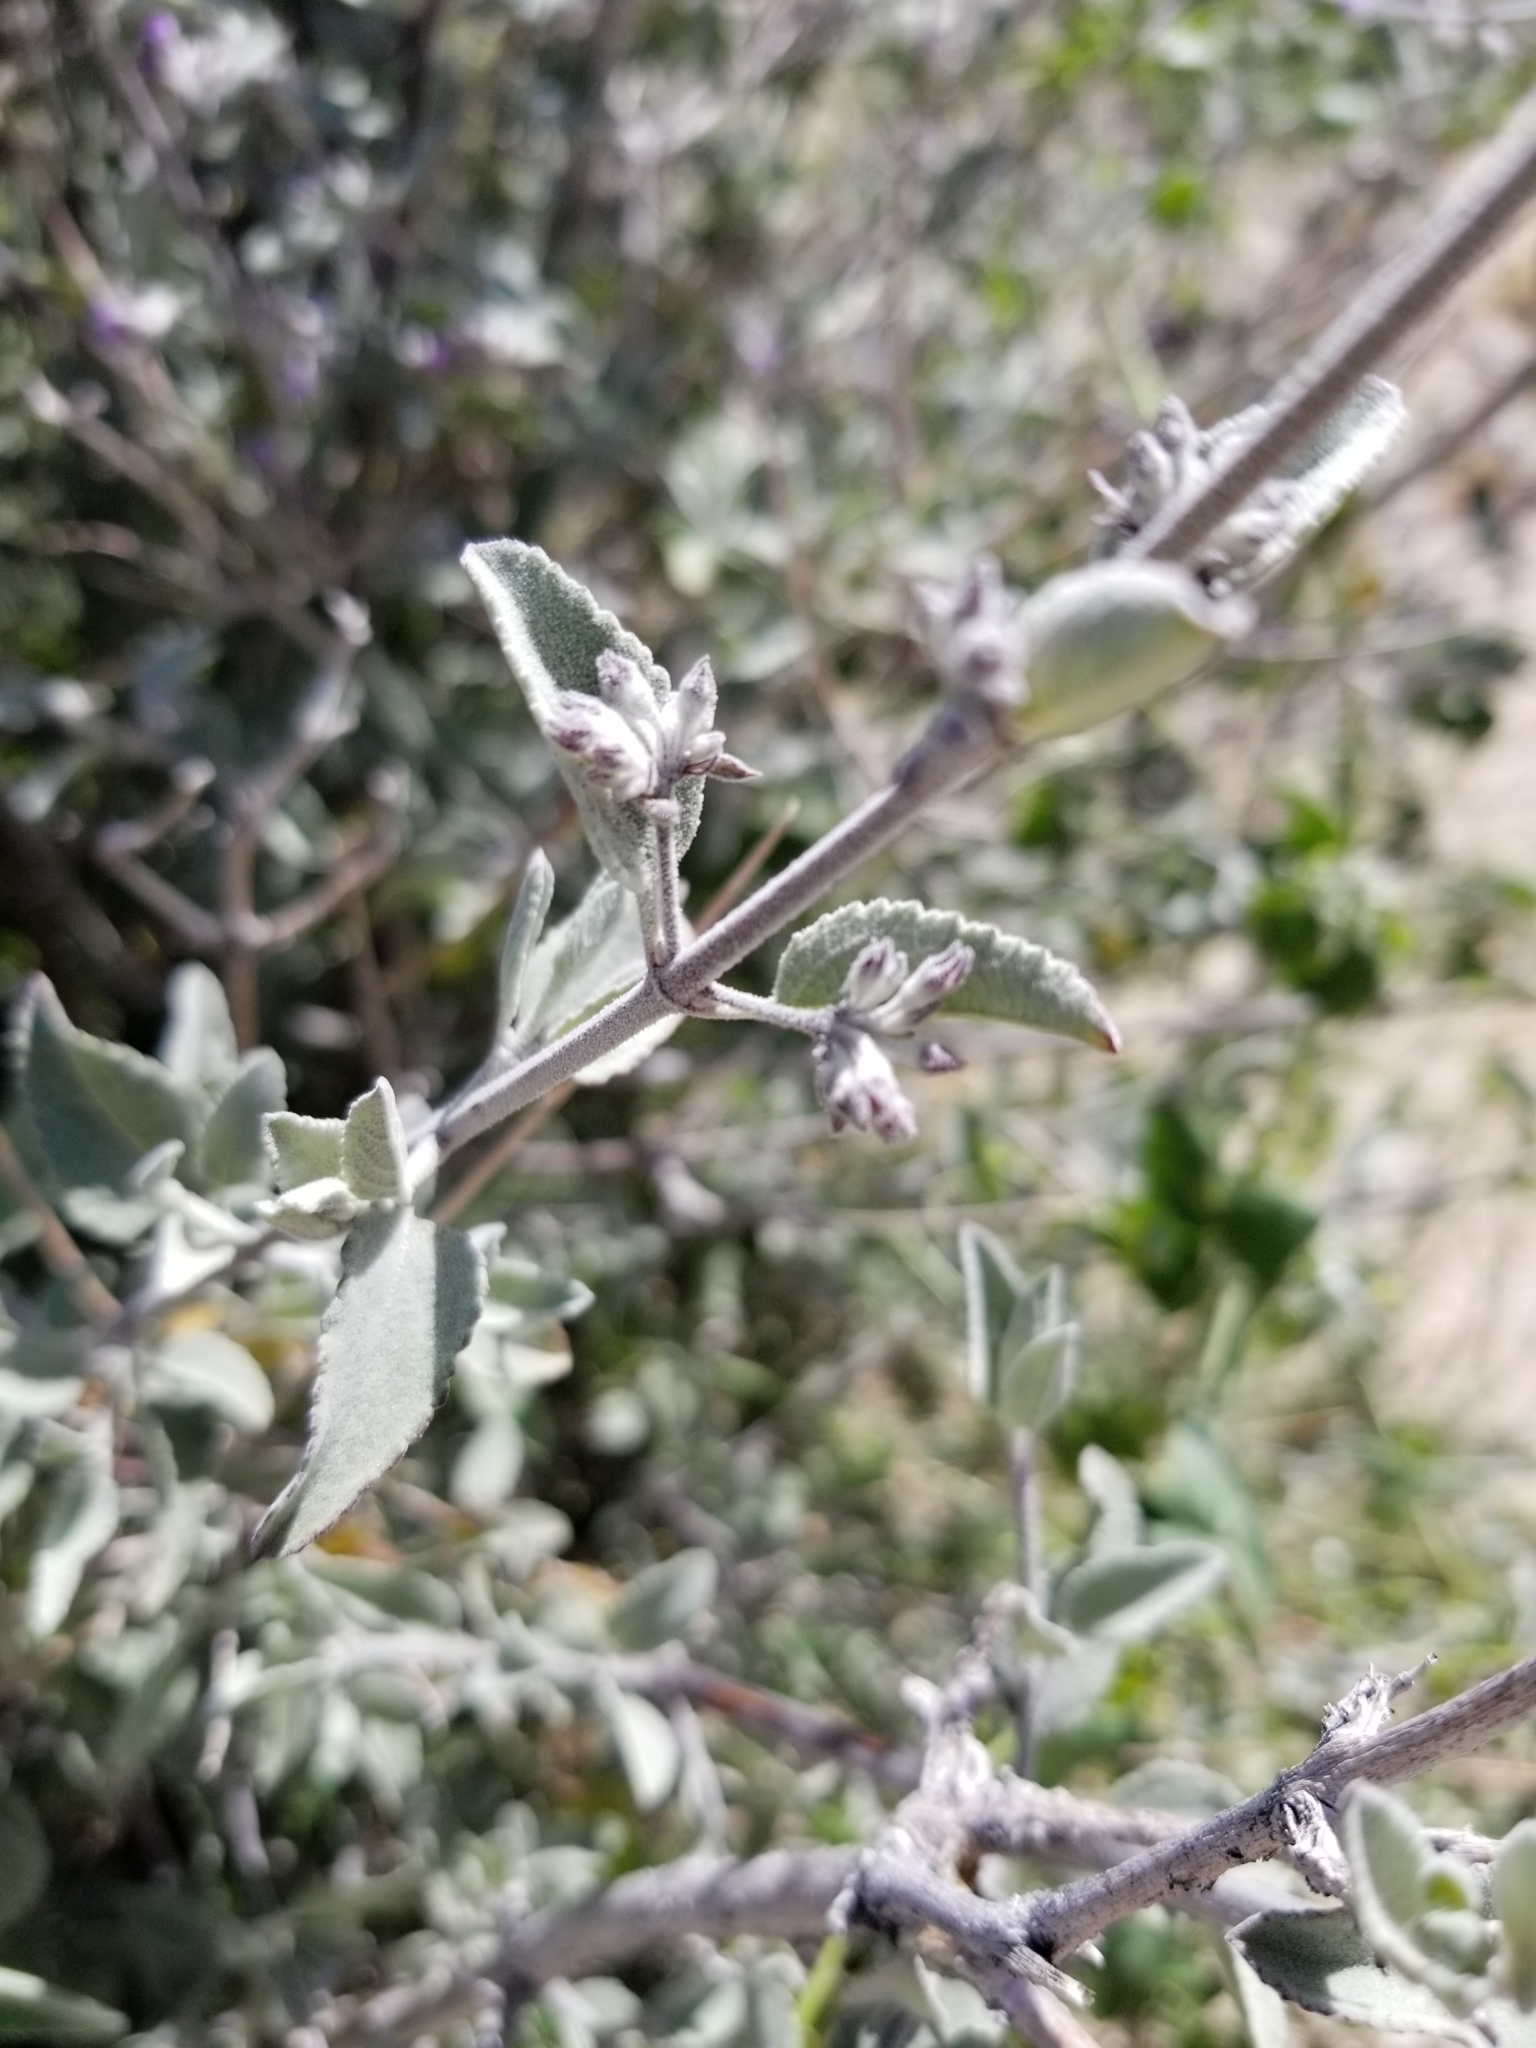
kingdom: Plantae
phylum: Tracheophyta
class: Magnoliopsida
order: Lamiales
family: Lamiaceae
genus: Condea
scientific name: Condea emoryi
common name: Chia
